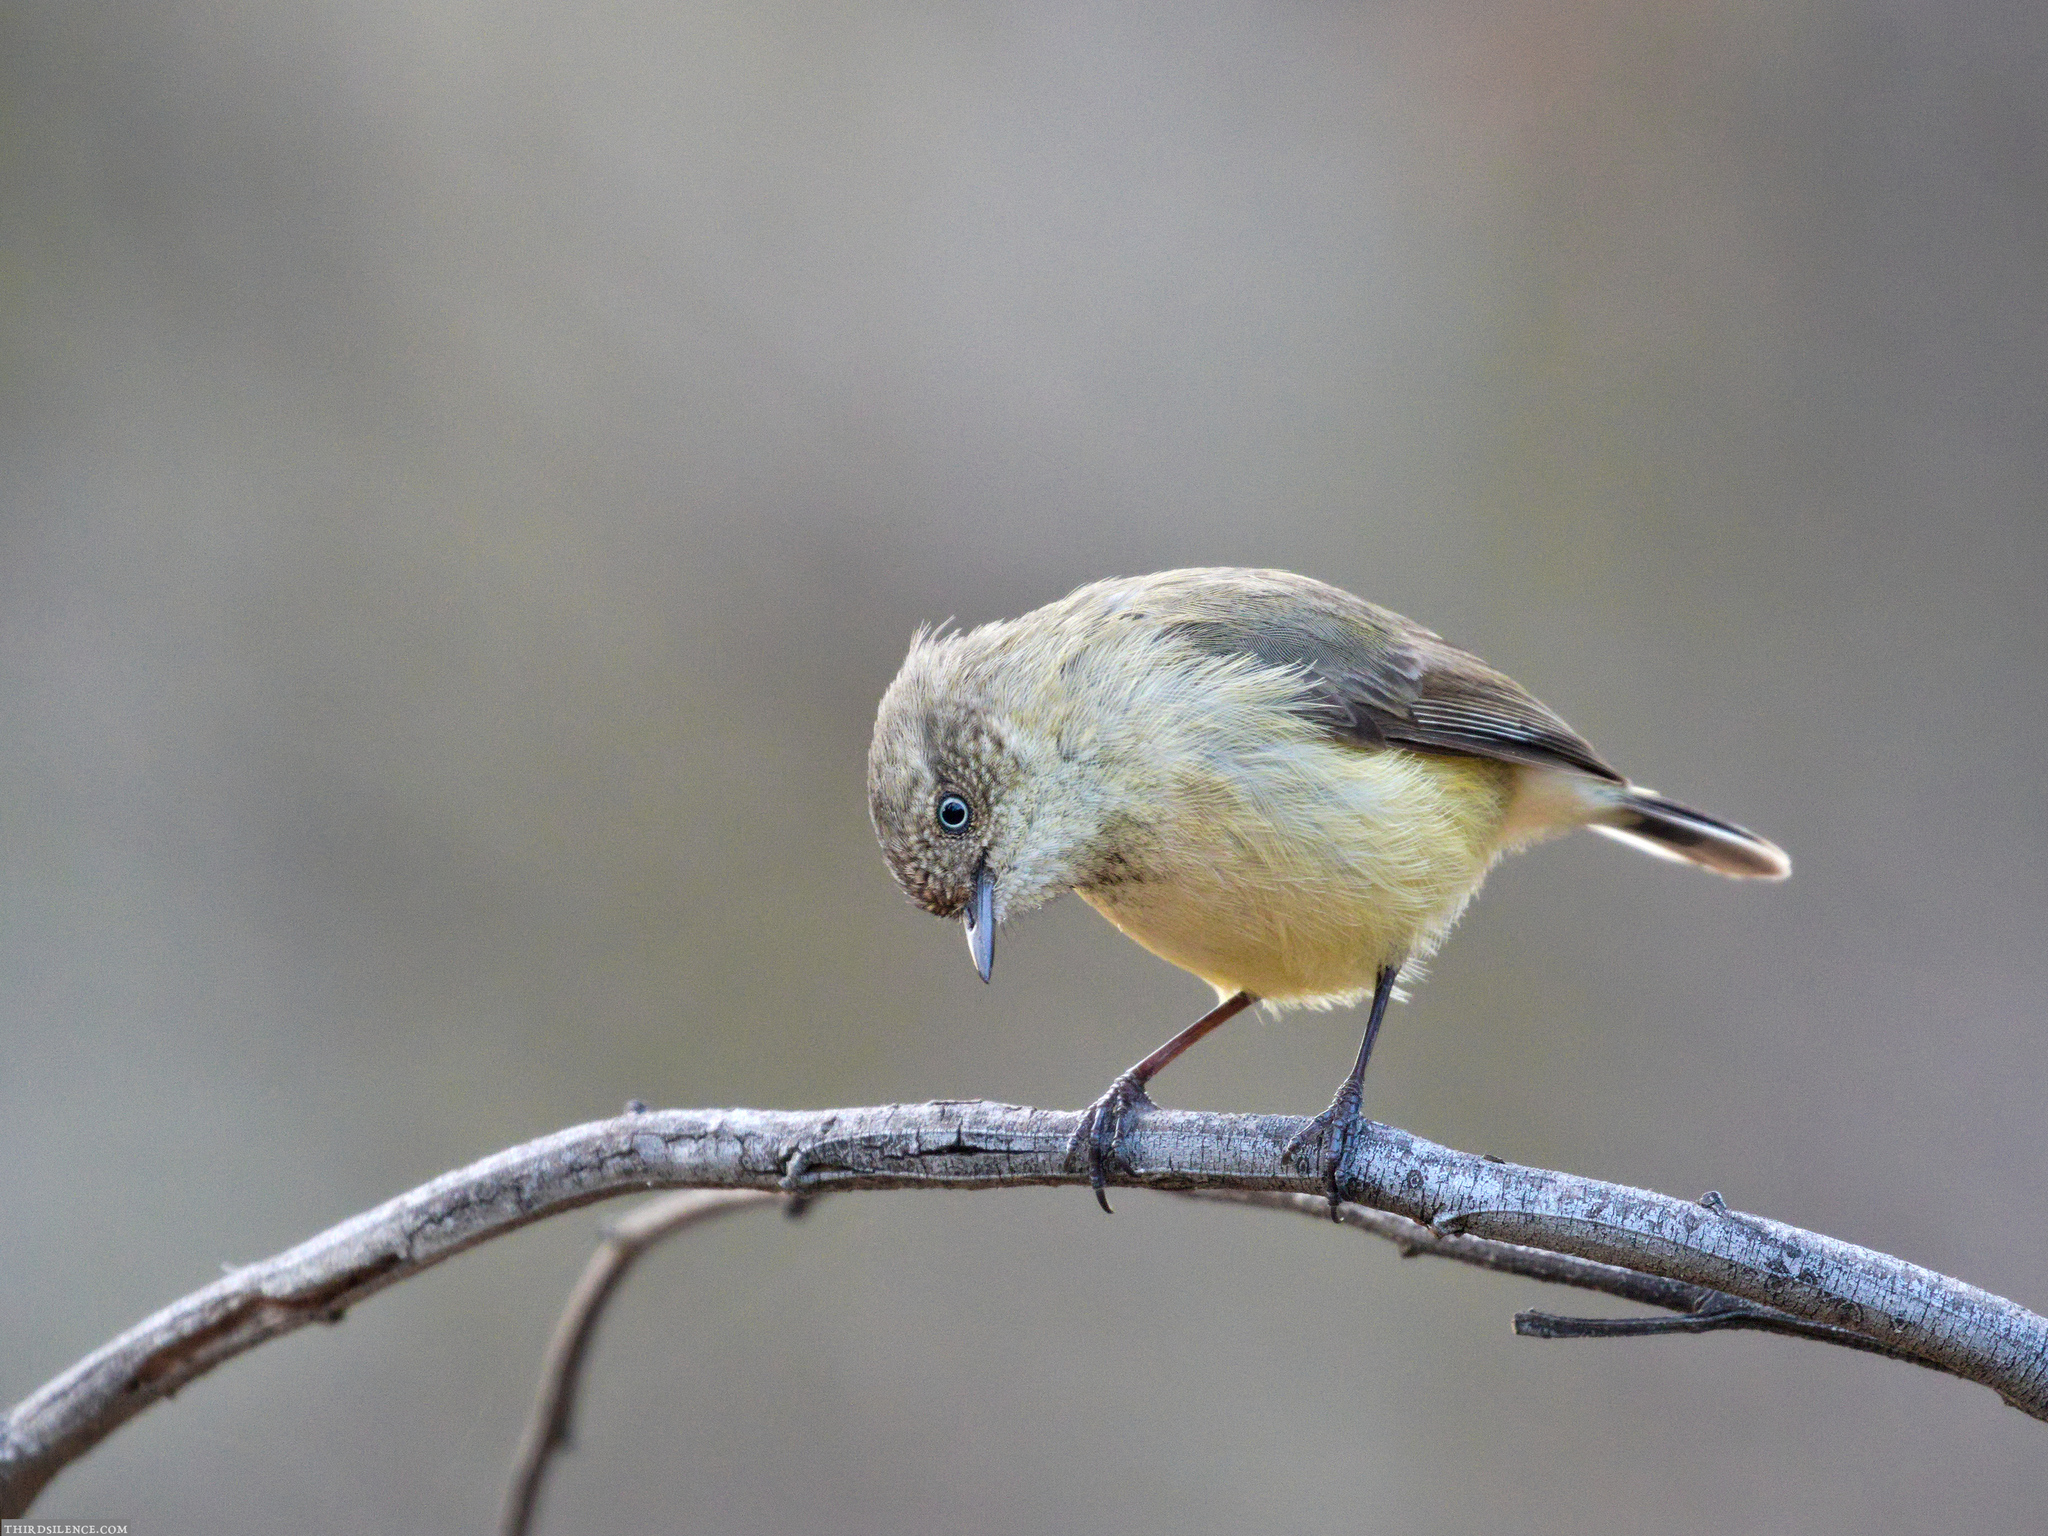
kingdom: Animalia
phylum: Chordata
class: Aves
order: Passeriformes
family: Acanthizidae
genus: Acanthiza
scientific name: Acanthiza reguloides
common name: Buff-rumped thornbill
